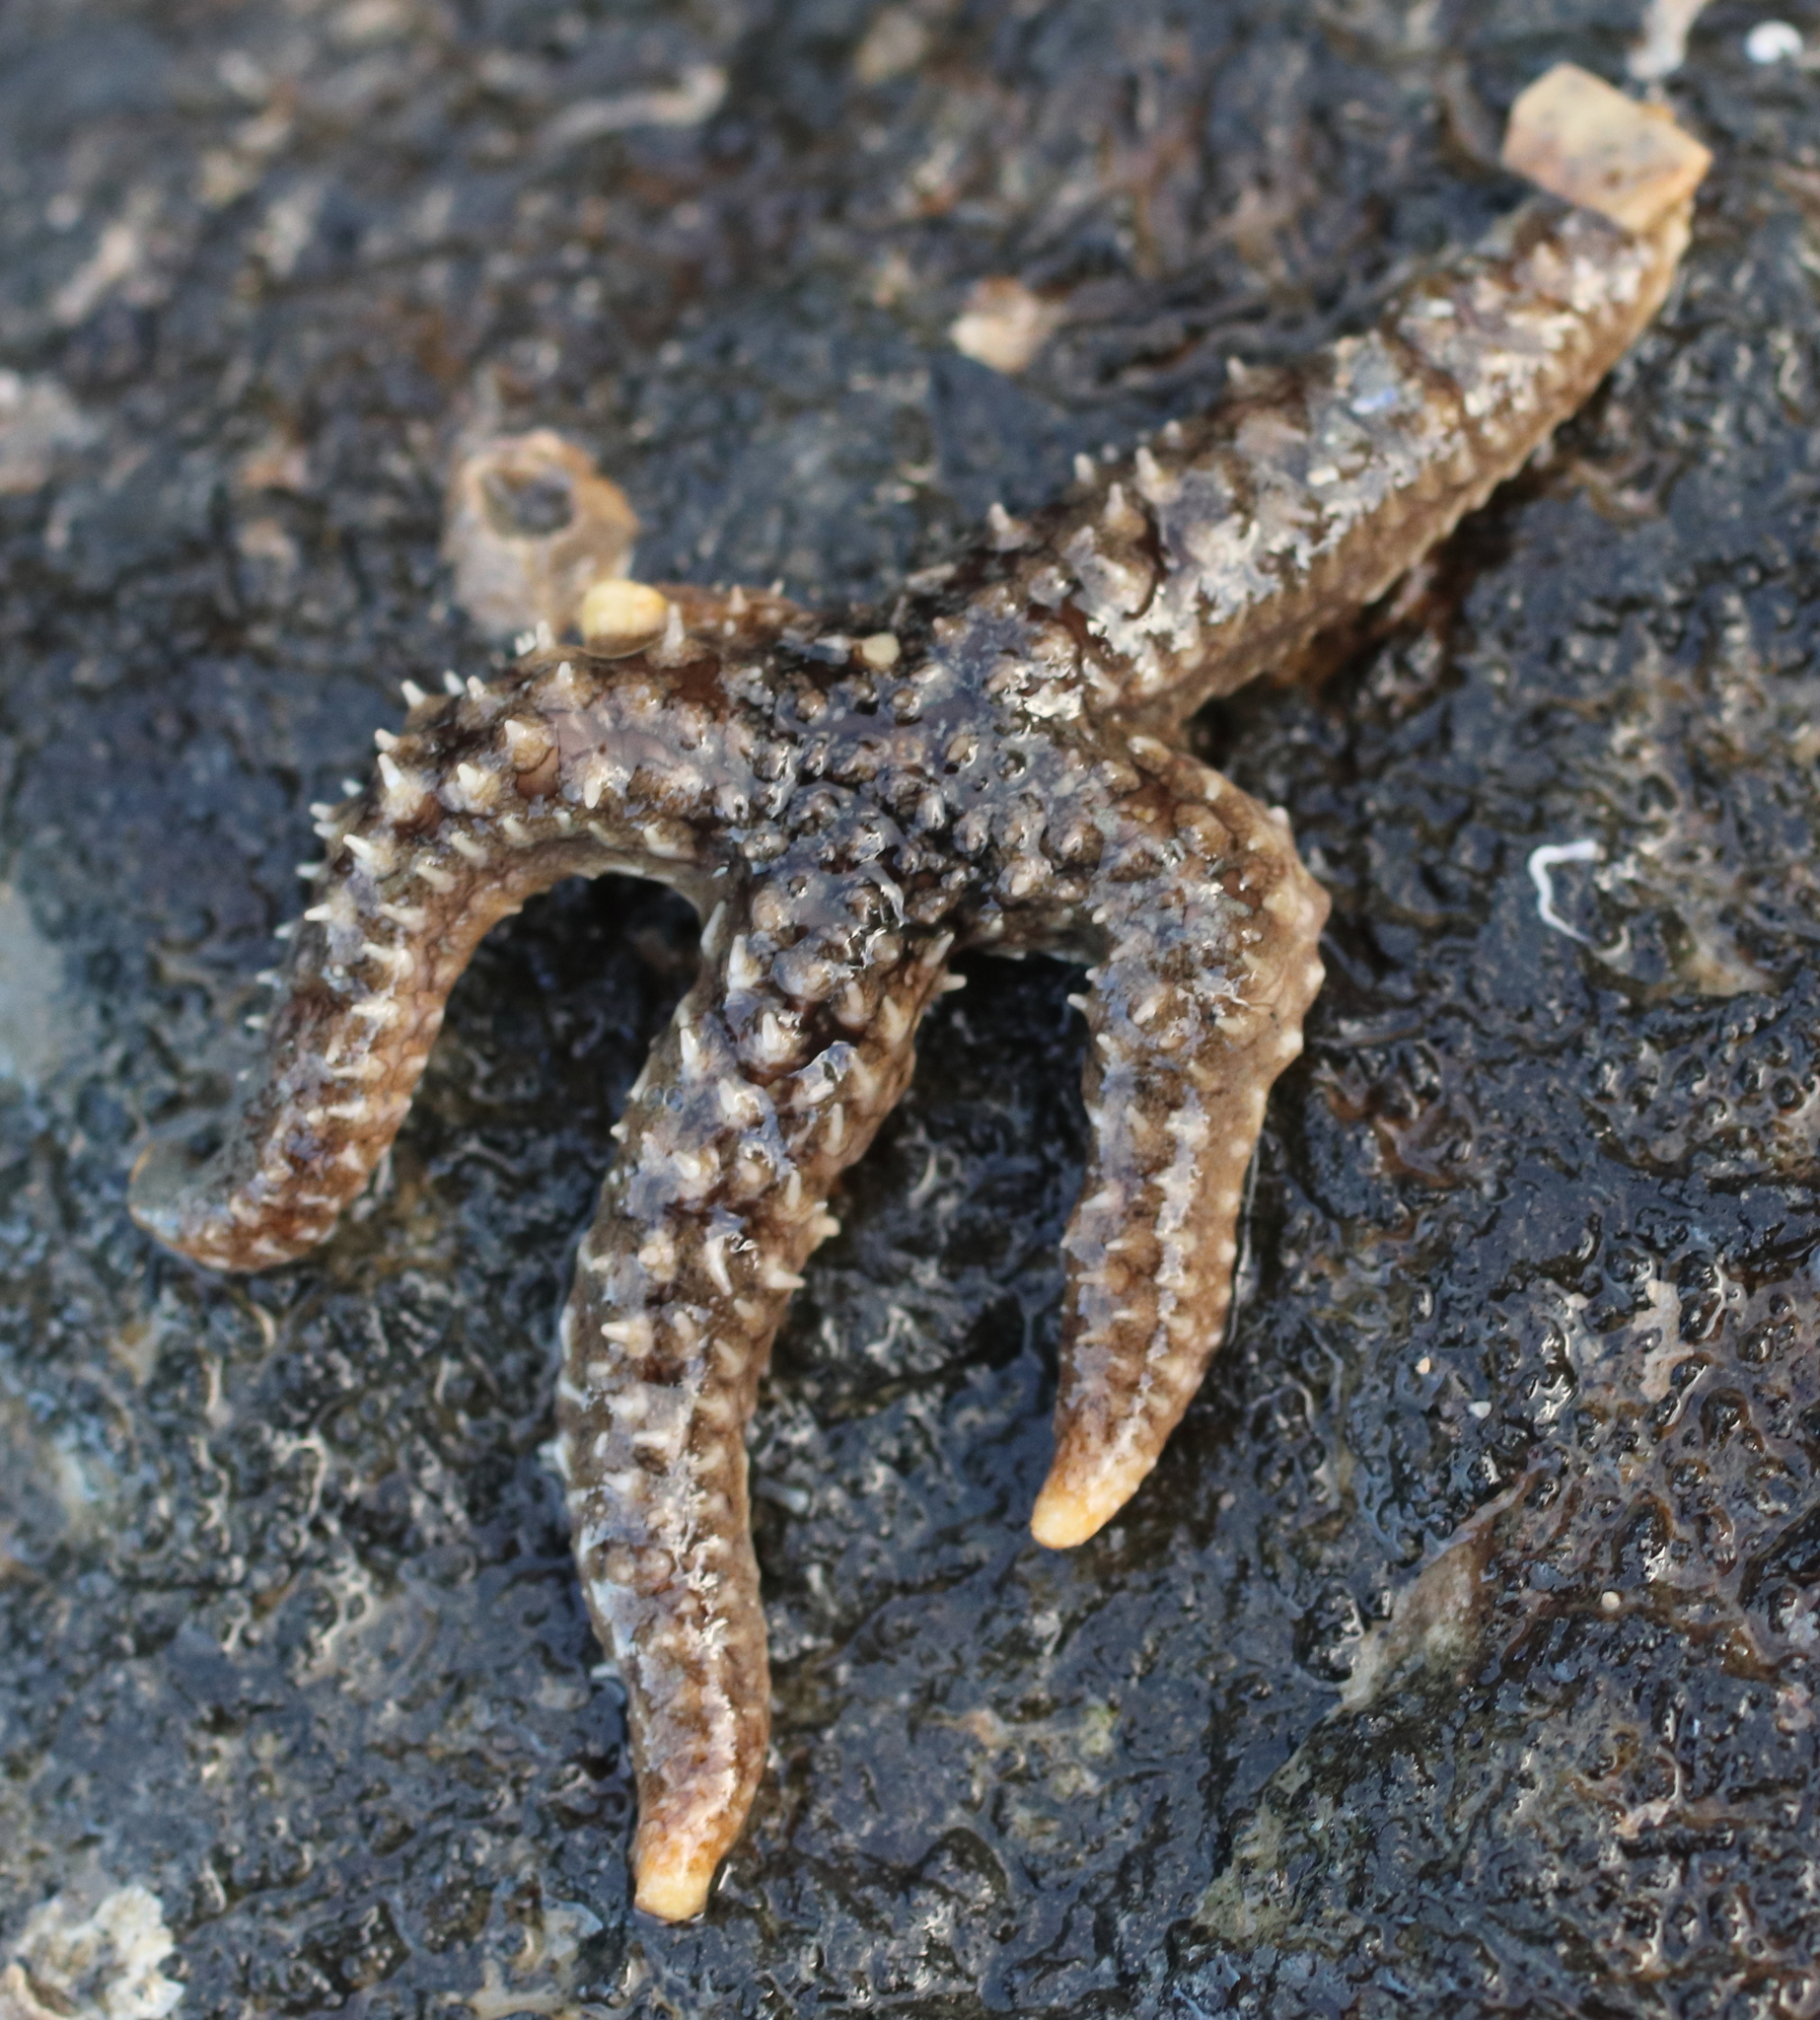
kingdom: Animalia
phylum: Echinodermata
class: Asteroidea
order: Forcipulatida
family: Asteriidae
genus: Stylasterias
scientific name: Stylasterias forreri
